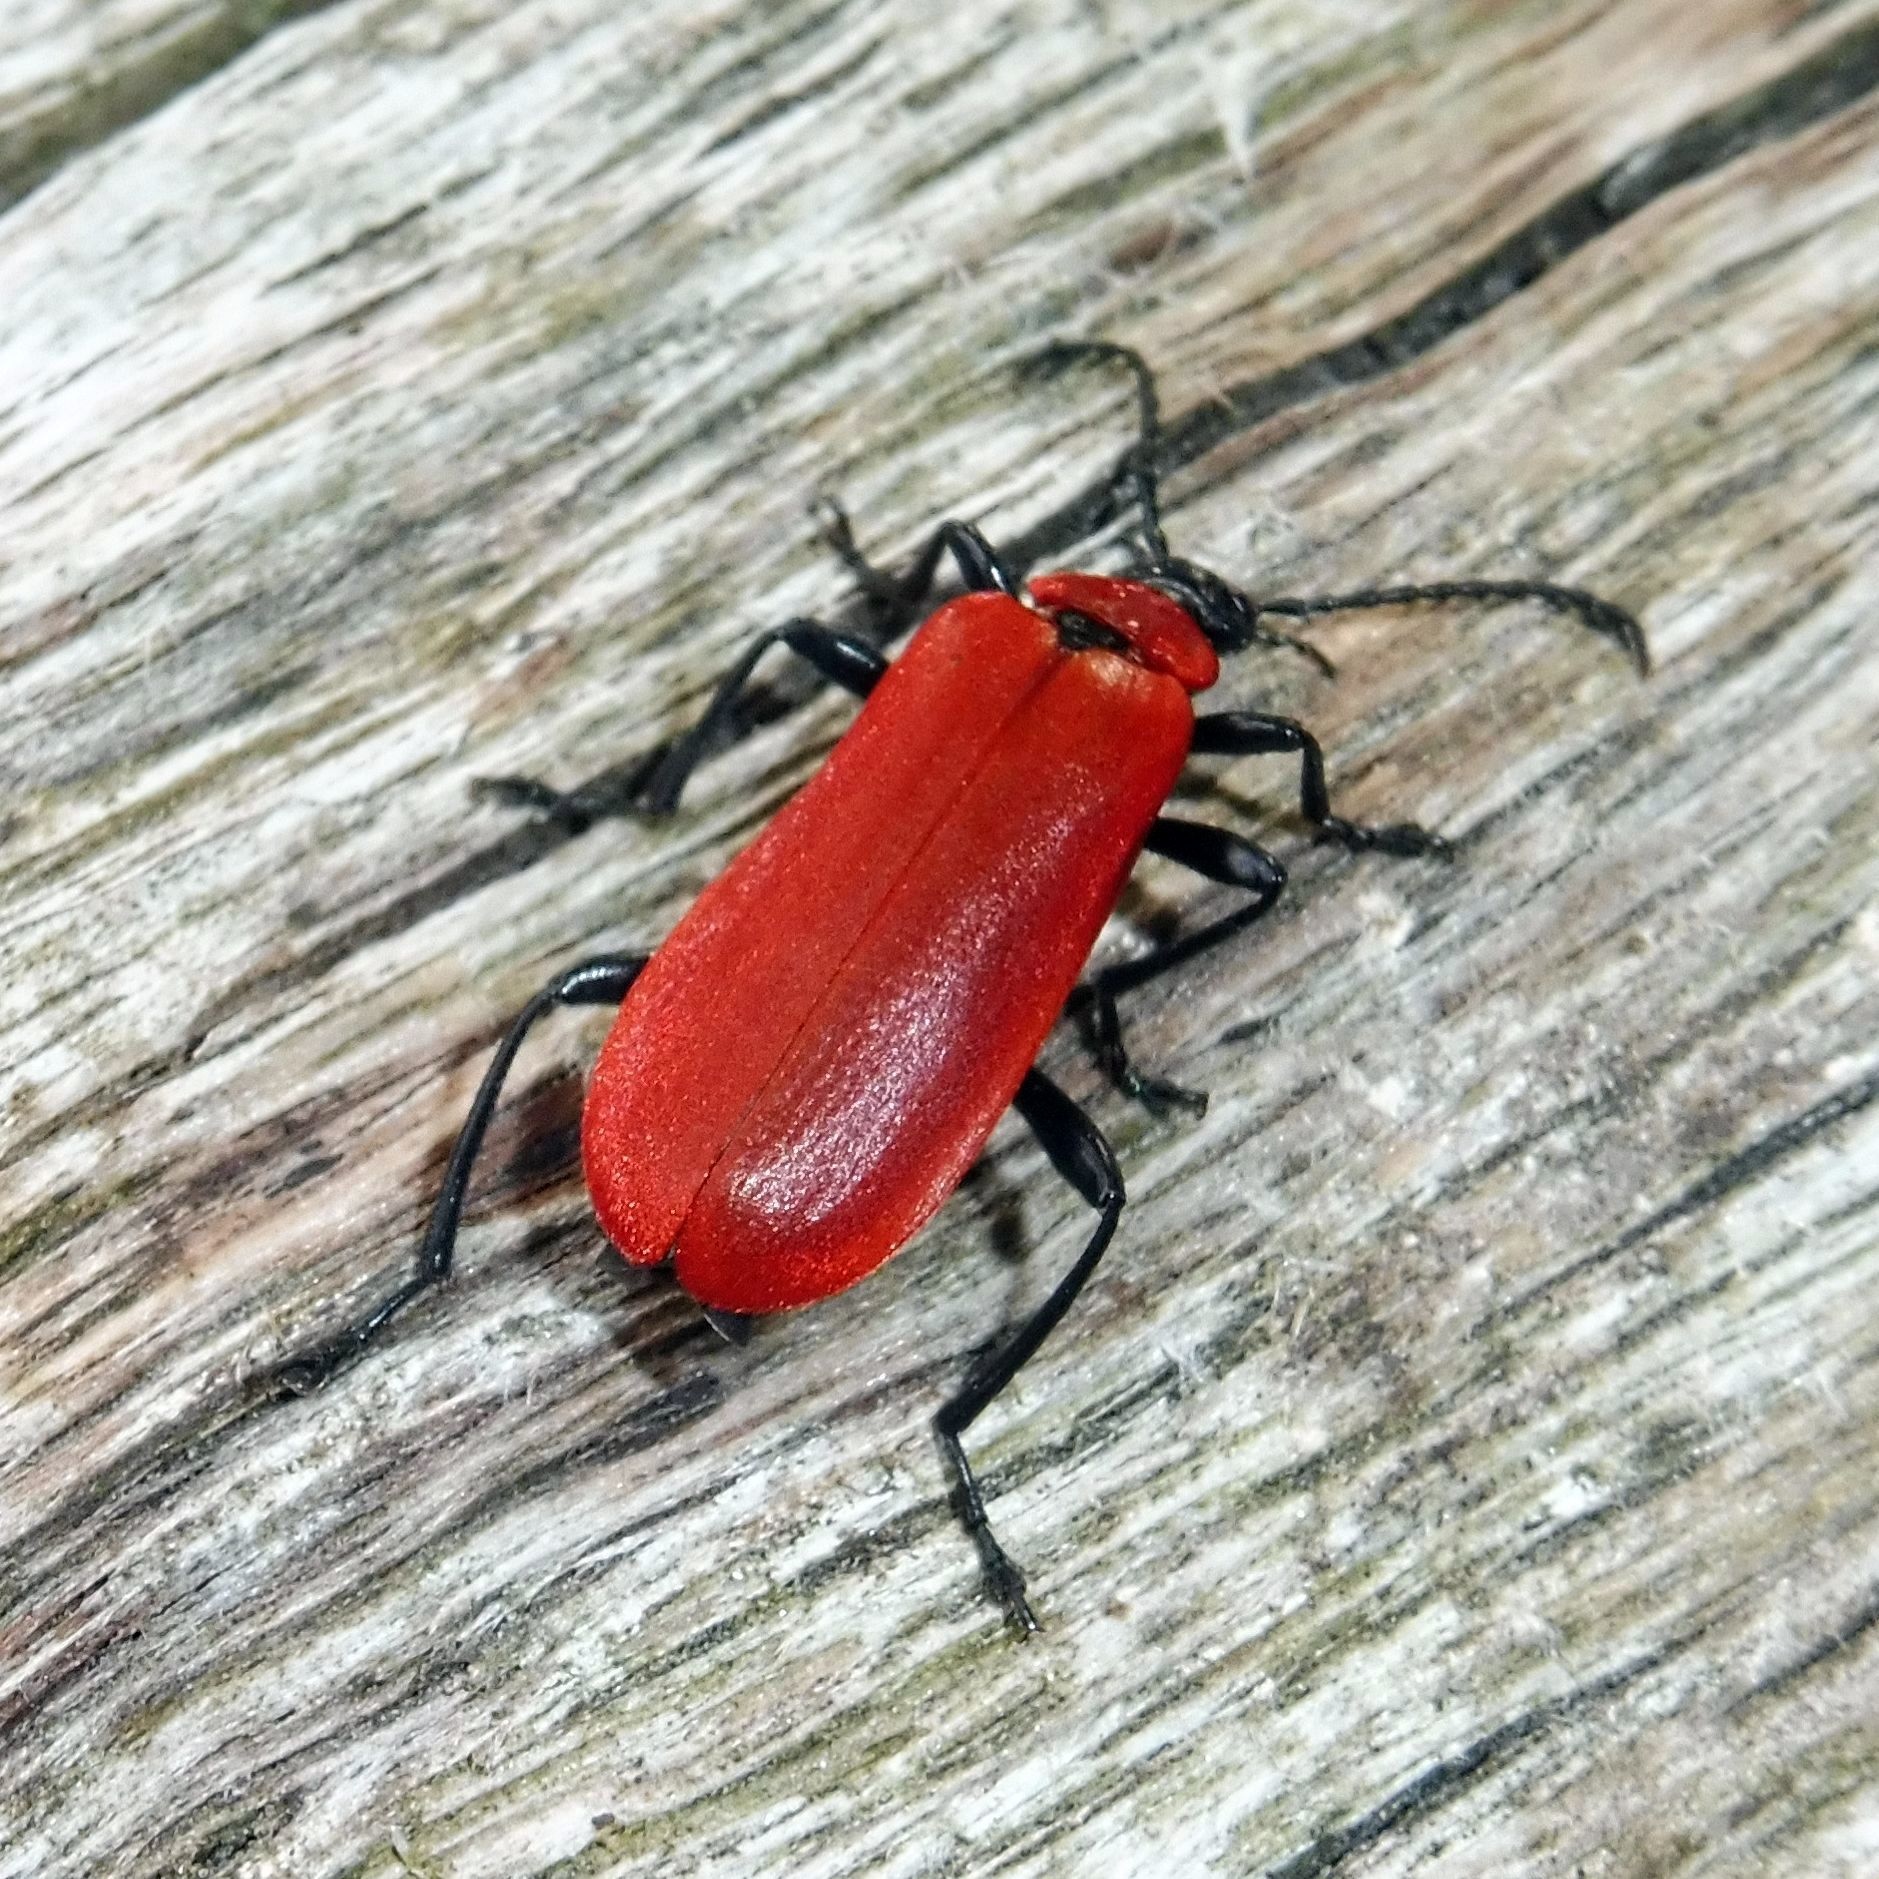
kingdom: Animalia
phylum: Arthropoda
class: Insecta
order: Coleoptera
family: Pyrochroidae
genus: Pyrochroa
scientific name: Pyrochroa coccinea
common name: Black-headed cardinal beetle
